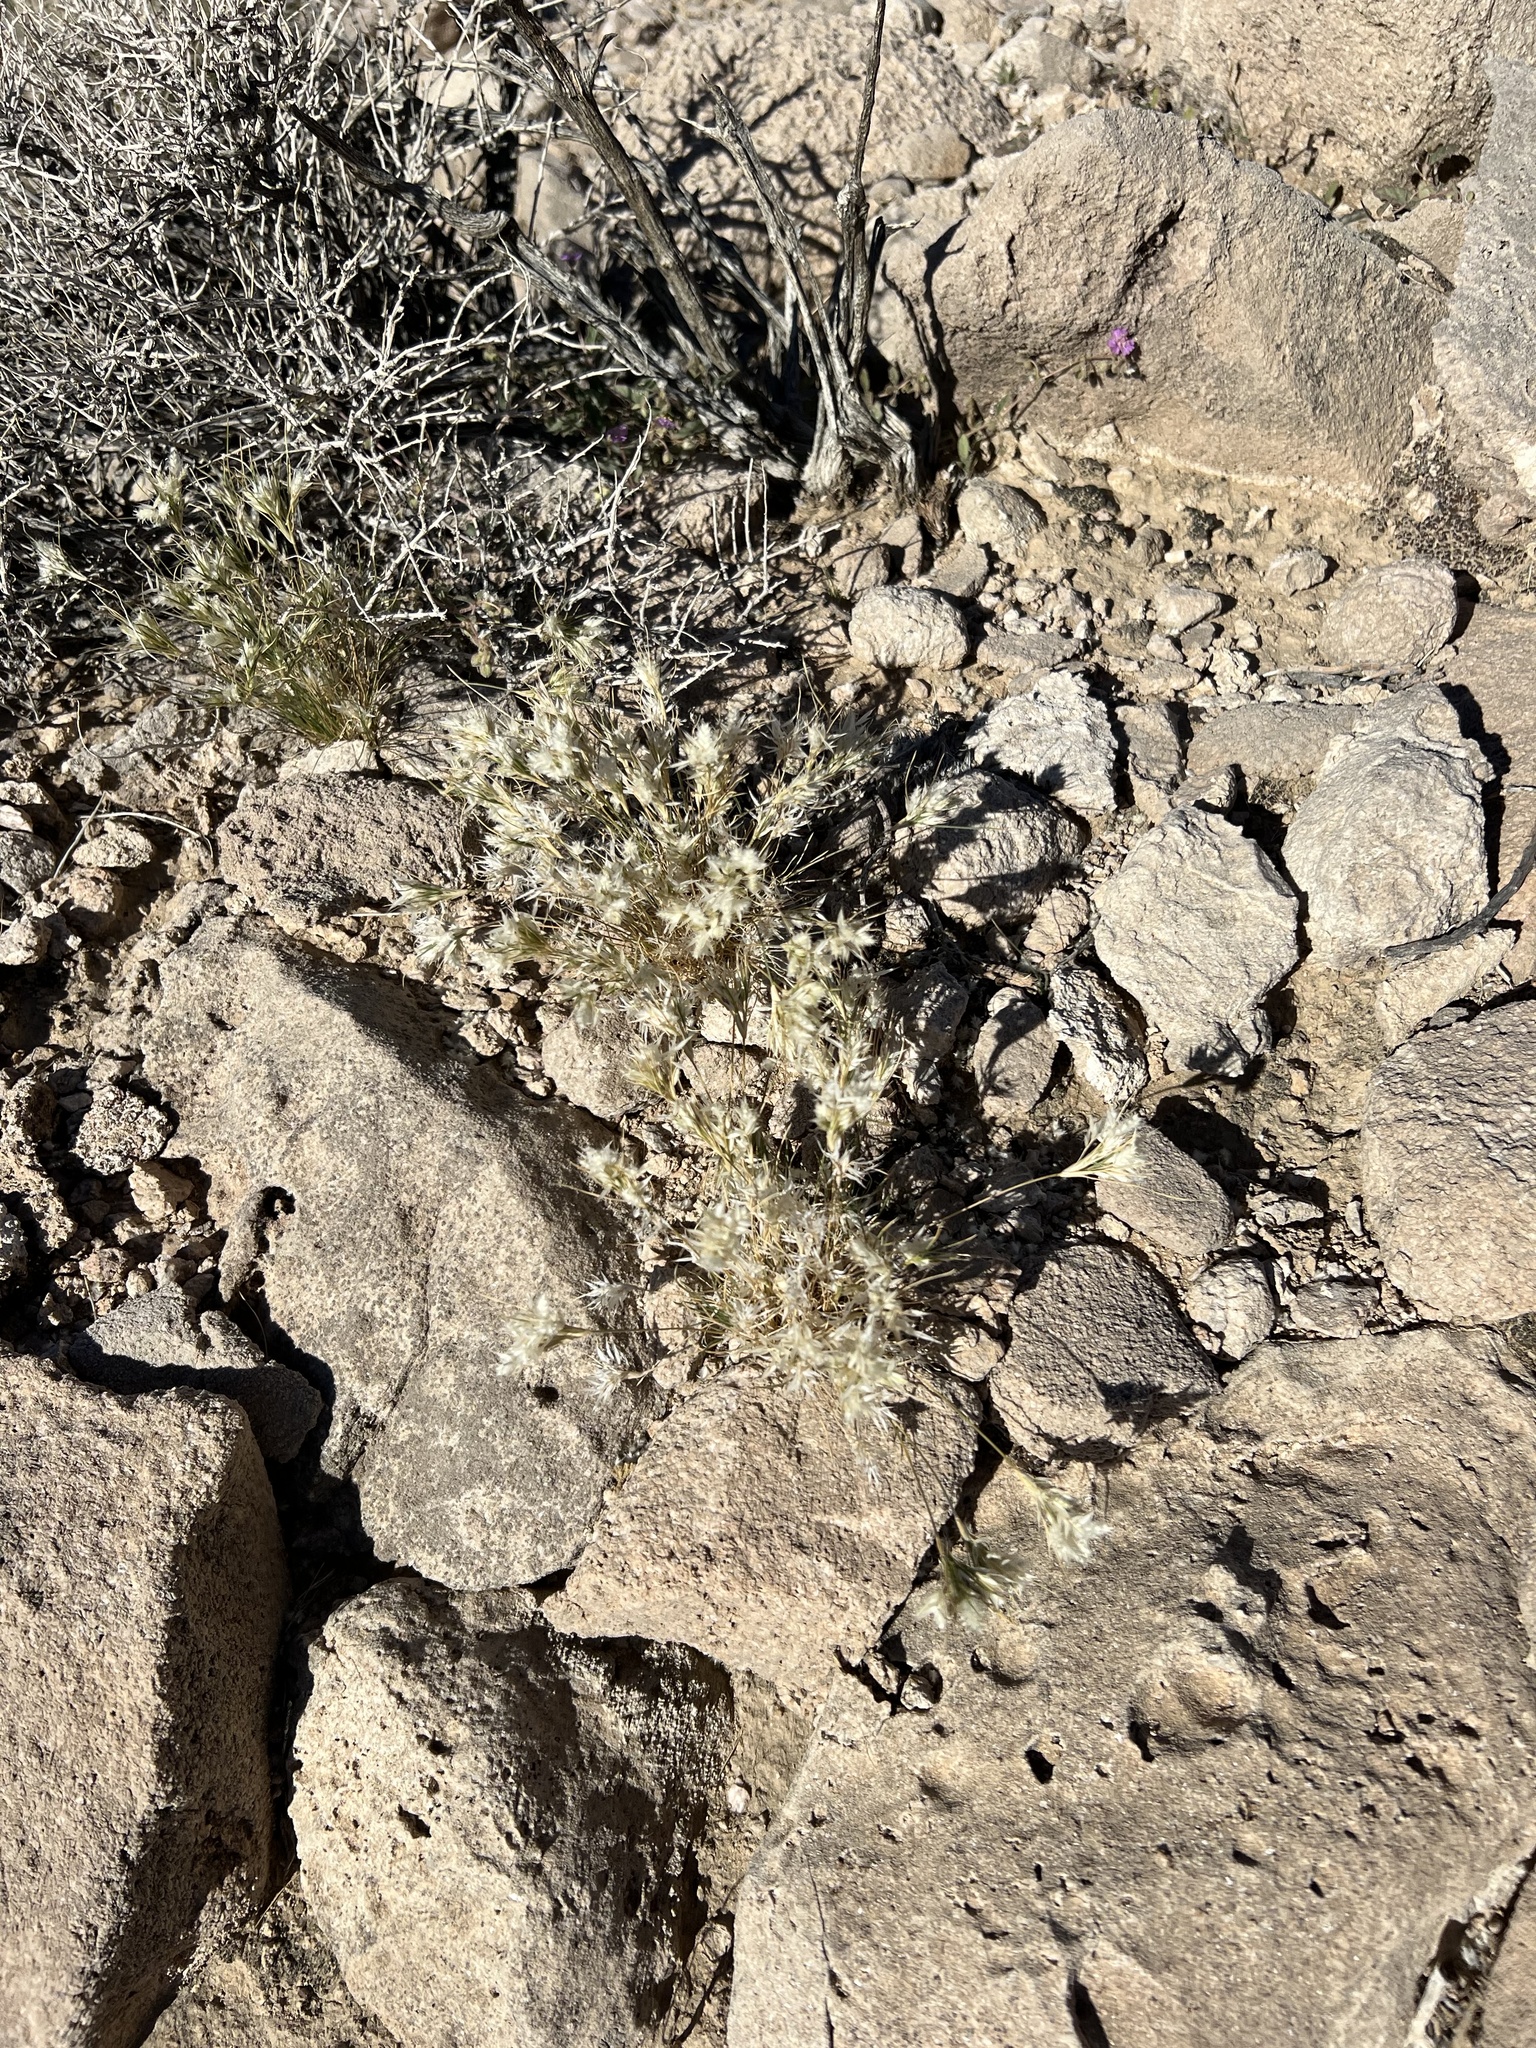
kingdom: Plantae
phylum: Tracheophyta
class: Liliopsida
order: Poales
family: Poaceae
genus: Dasyochloa
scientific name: Dasyochloa pulchella
